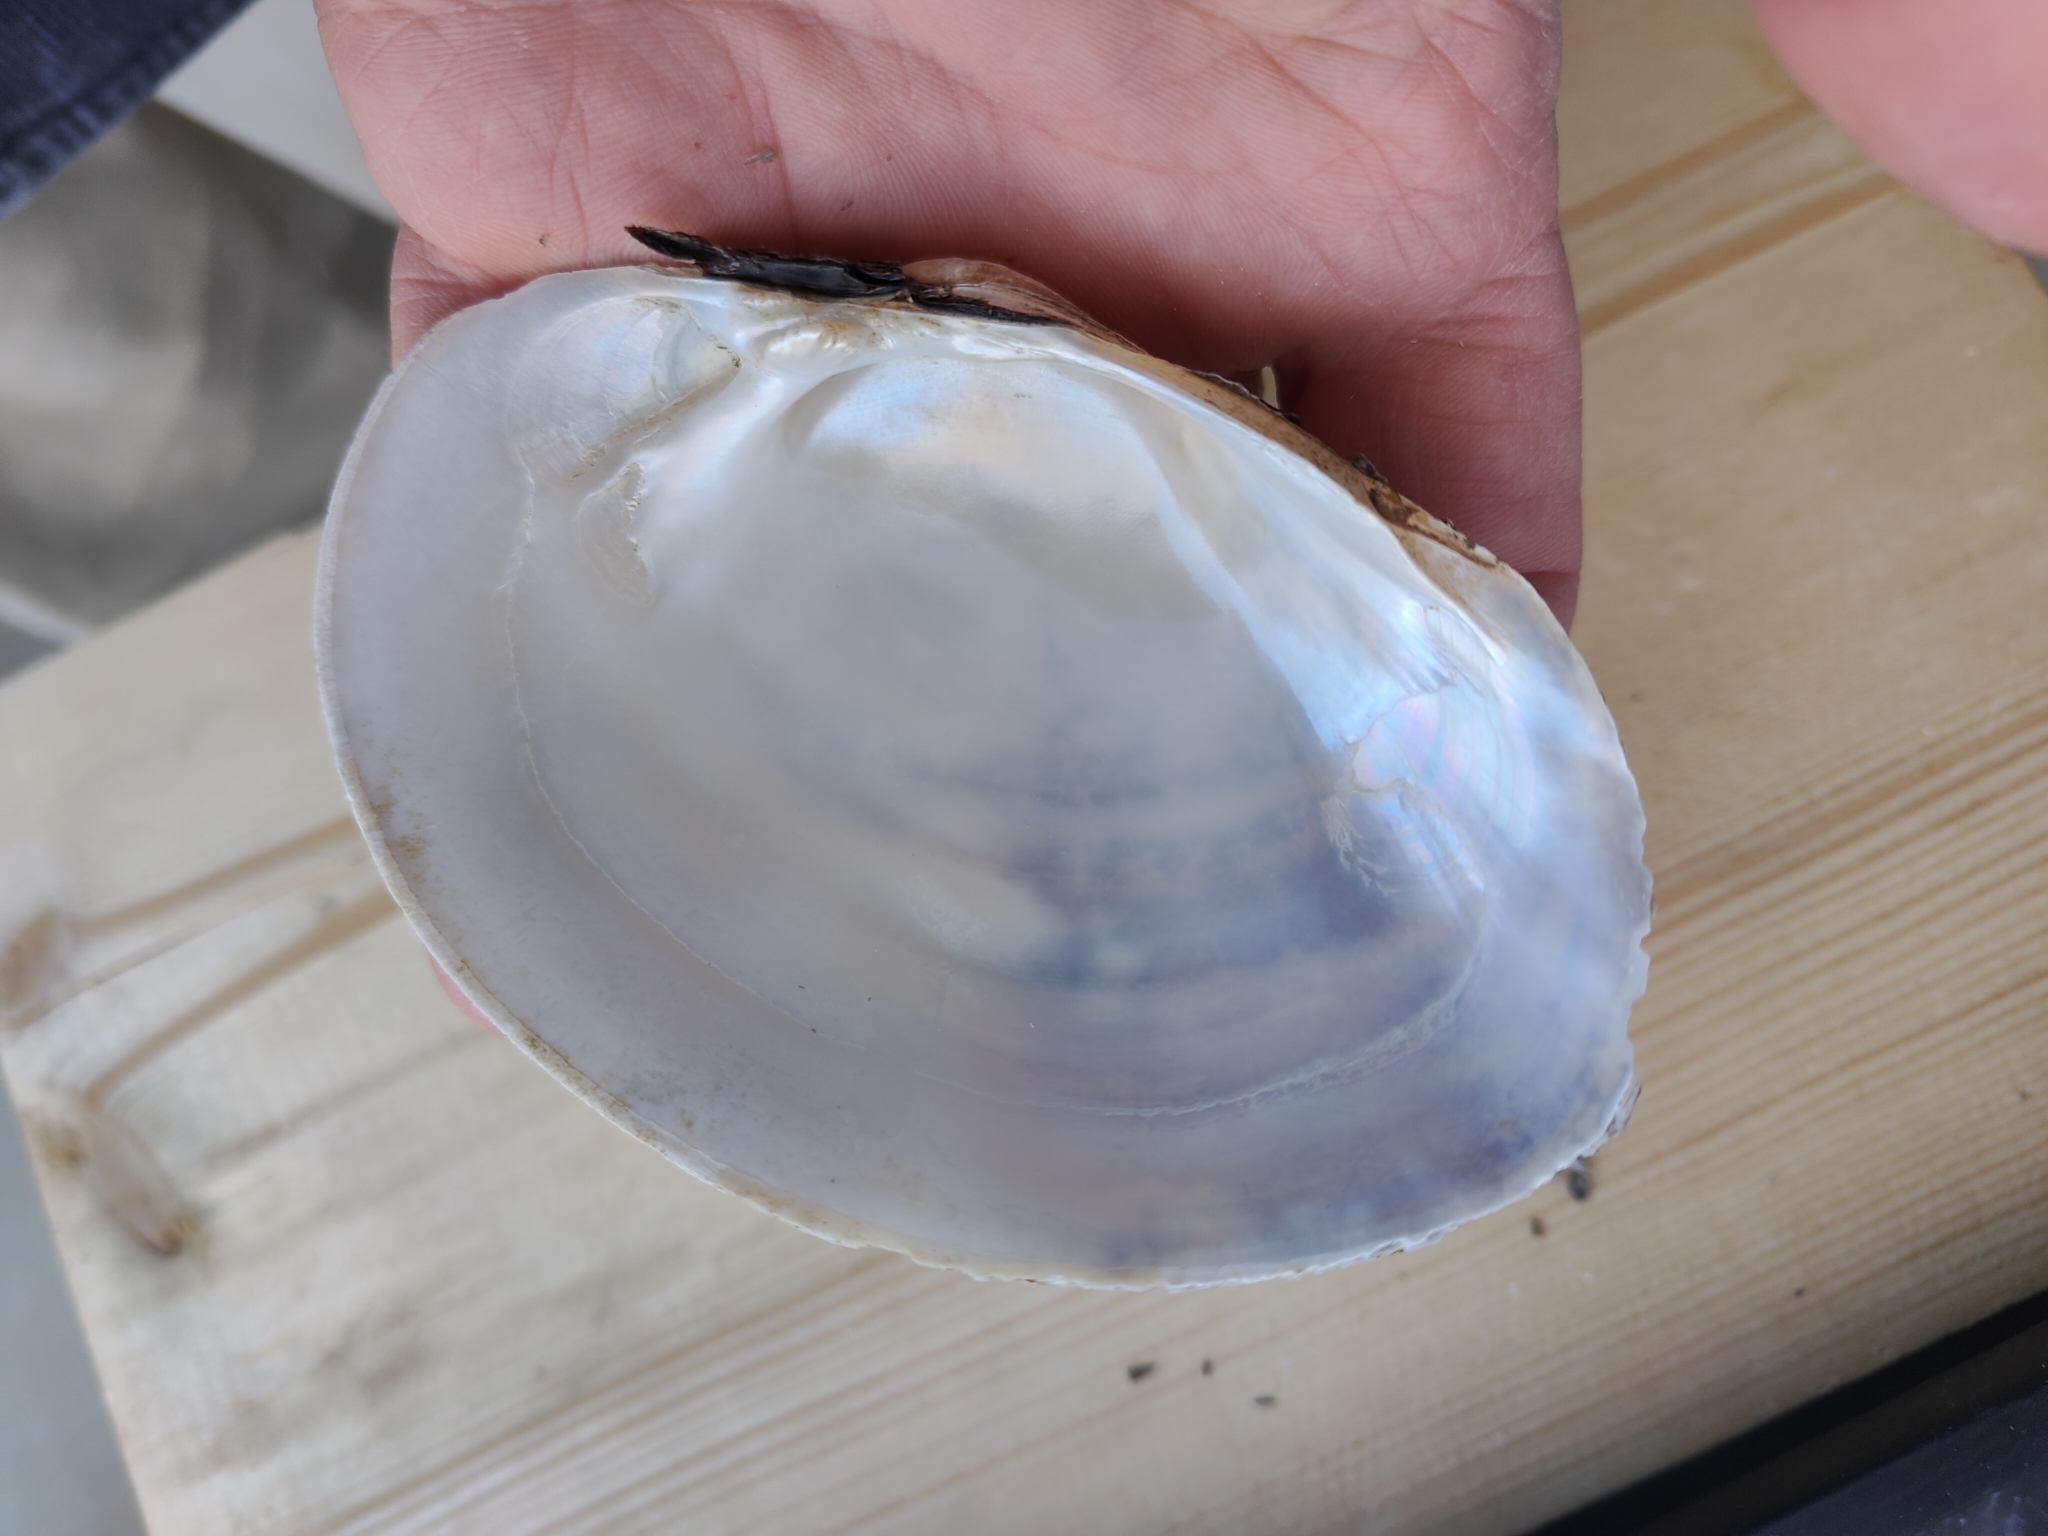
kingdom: Animalia
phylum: Mollusca
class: Bivalvia
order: Unionida
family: Unionidae
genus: Lampsilis
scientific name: Lampsilis cardium
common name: Plain pocketbook
